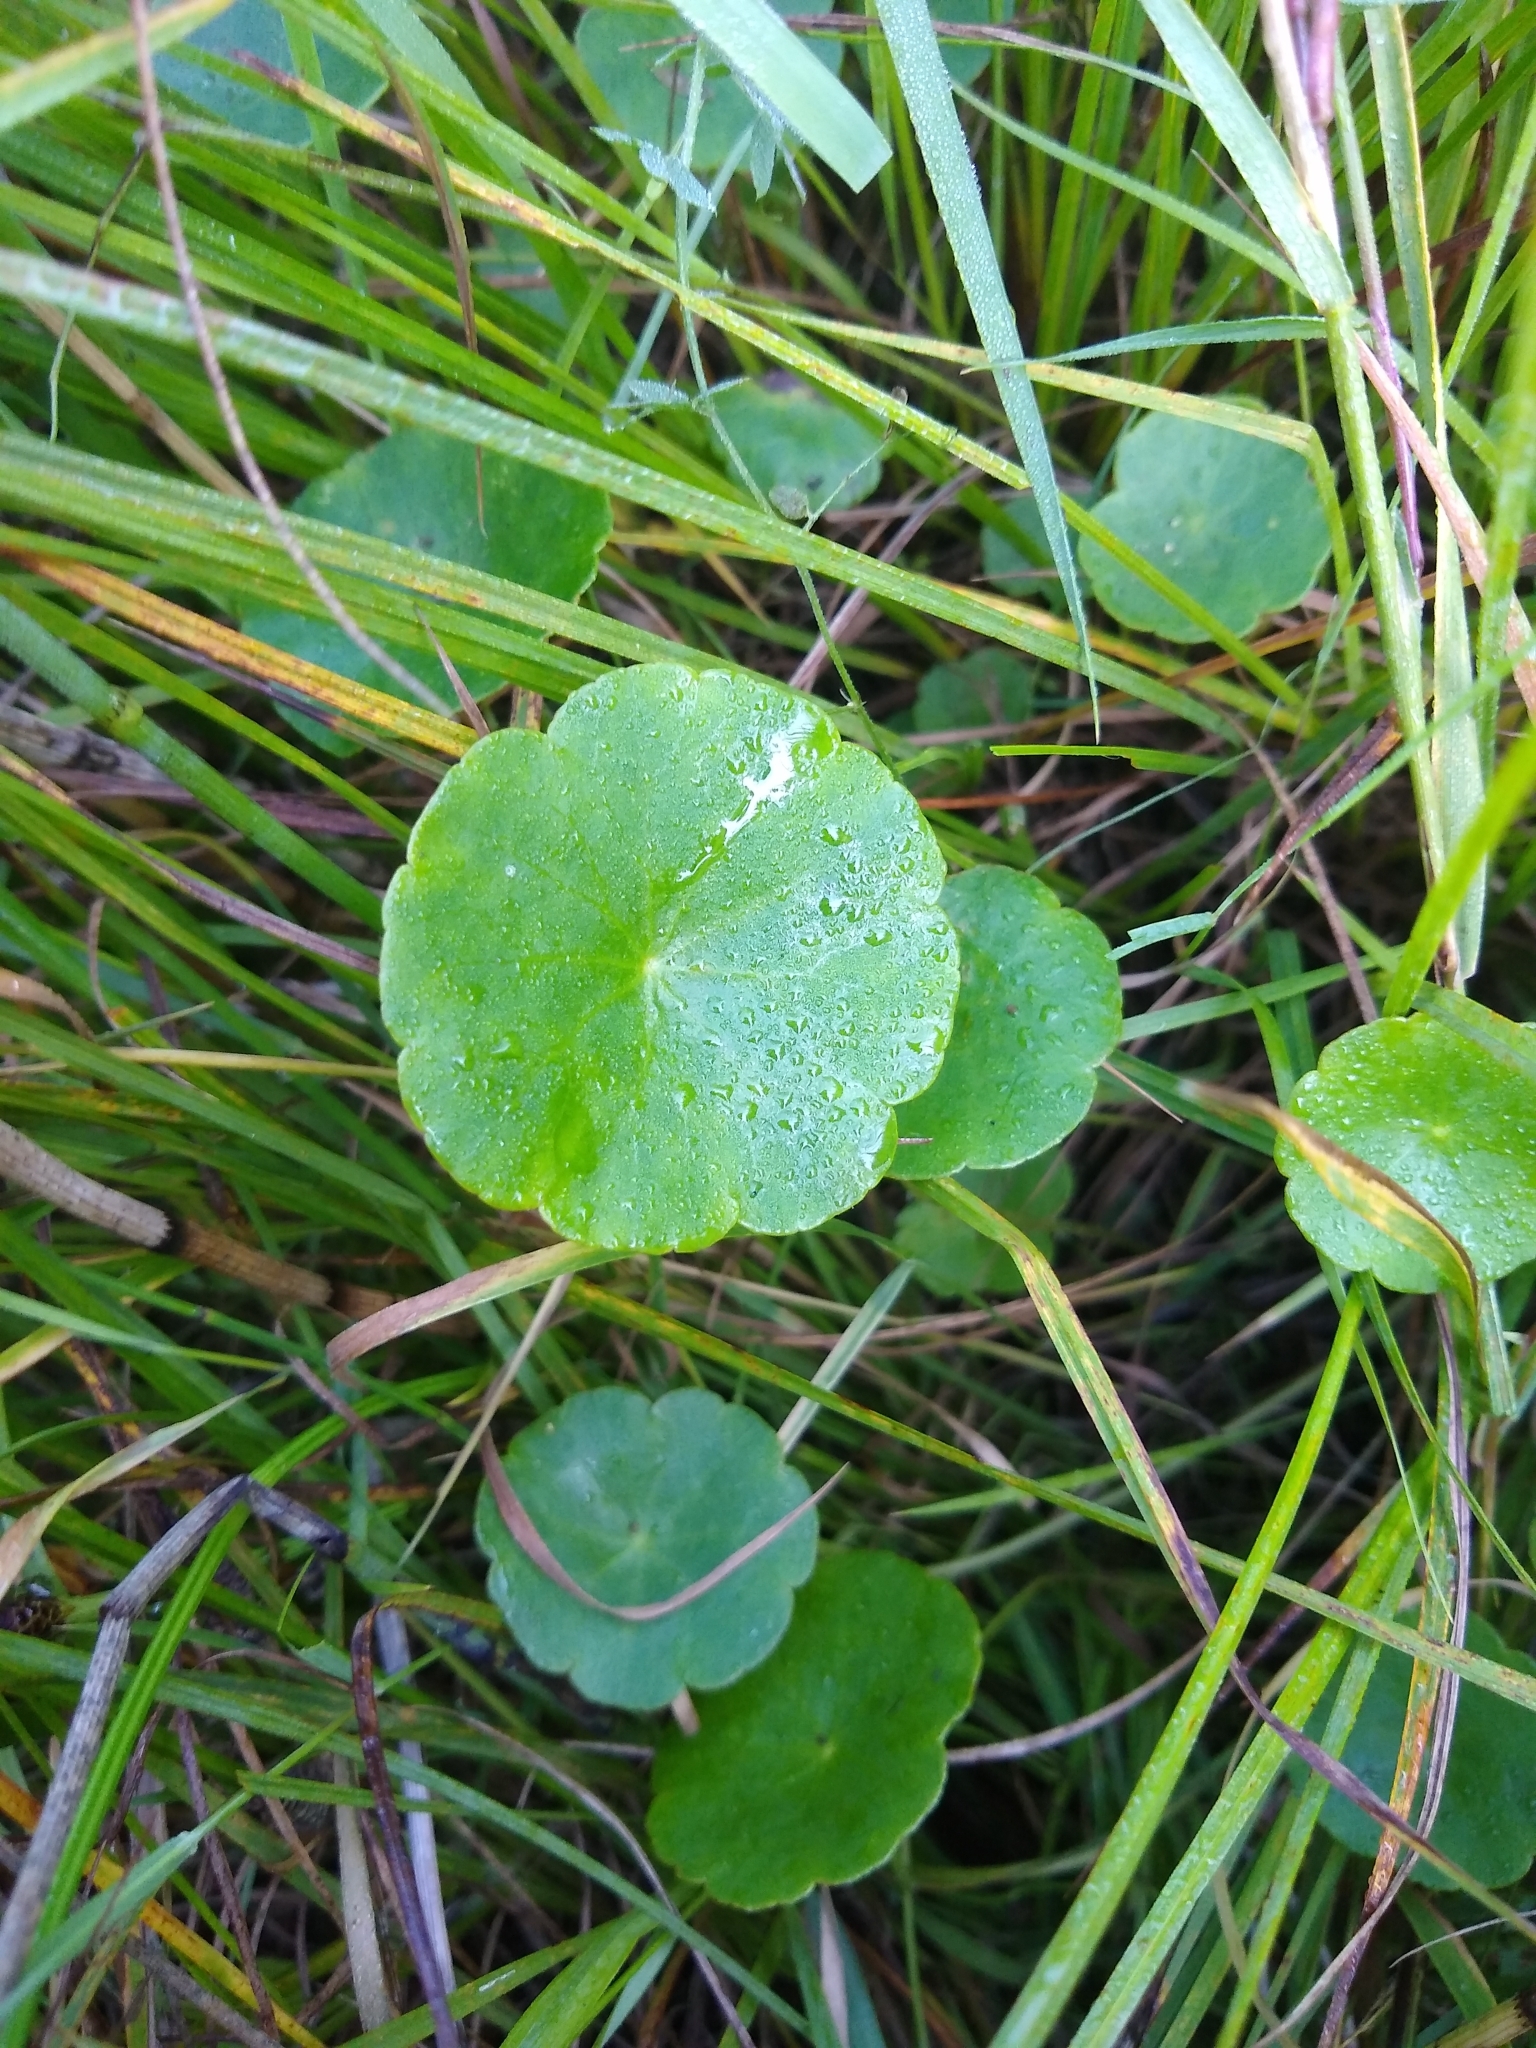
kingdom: Plantae
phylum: Tracheophyta
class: Magnoliopsida
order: Apiales
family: Araliaceae
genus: Hydrocotyle
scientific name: Hydrocotyle vulgaris
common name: Marsh pennywort
